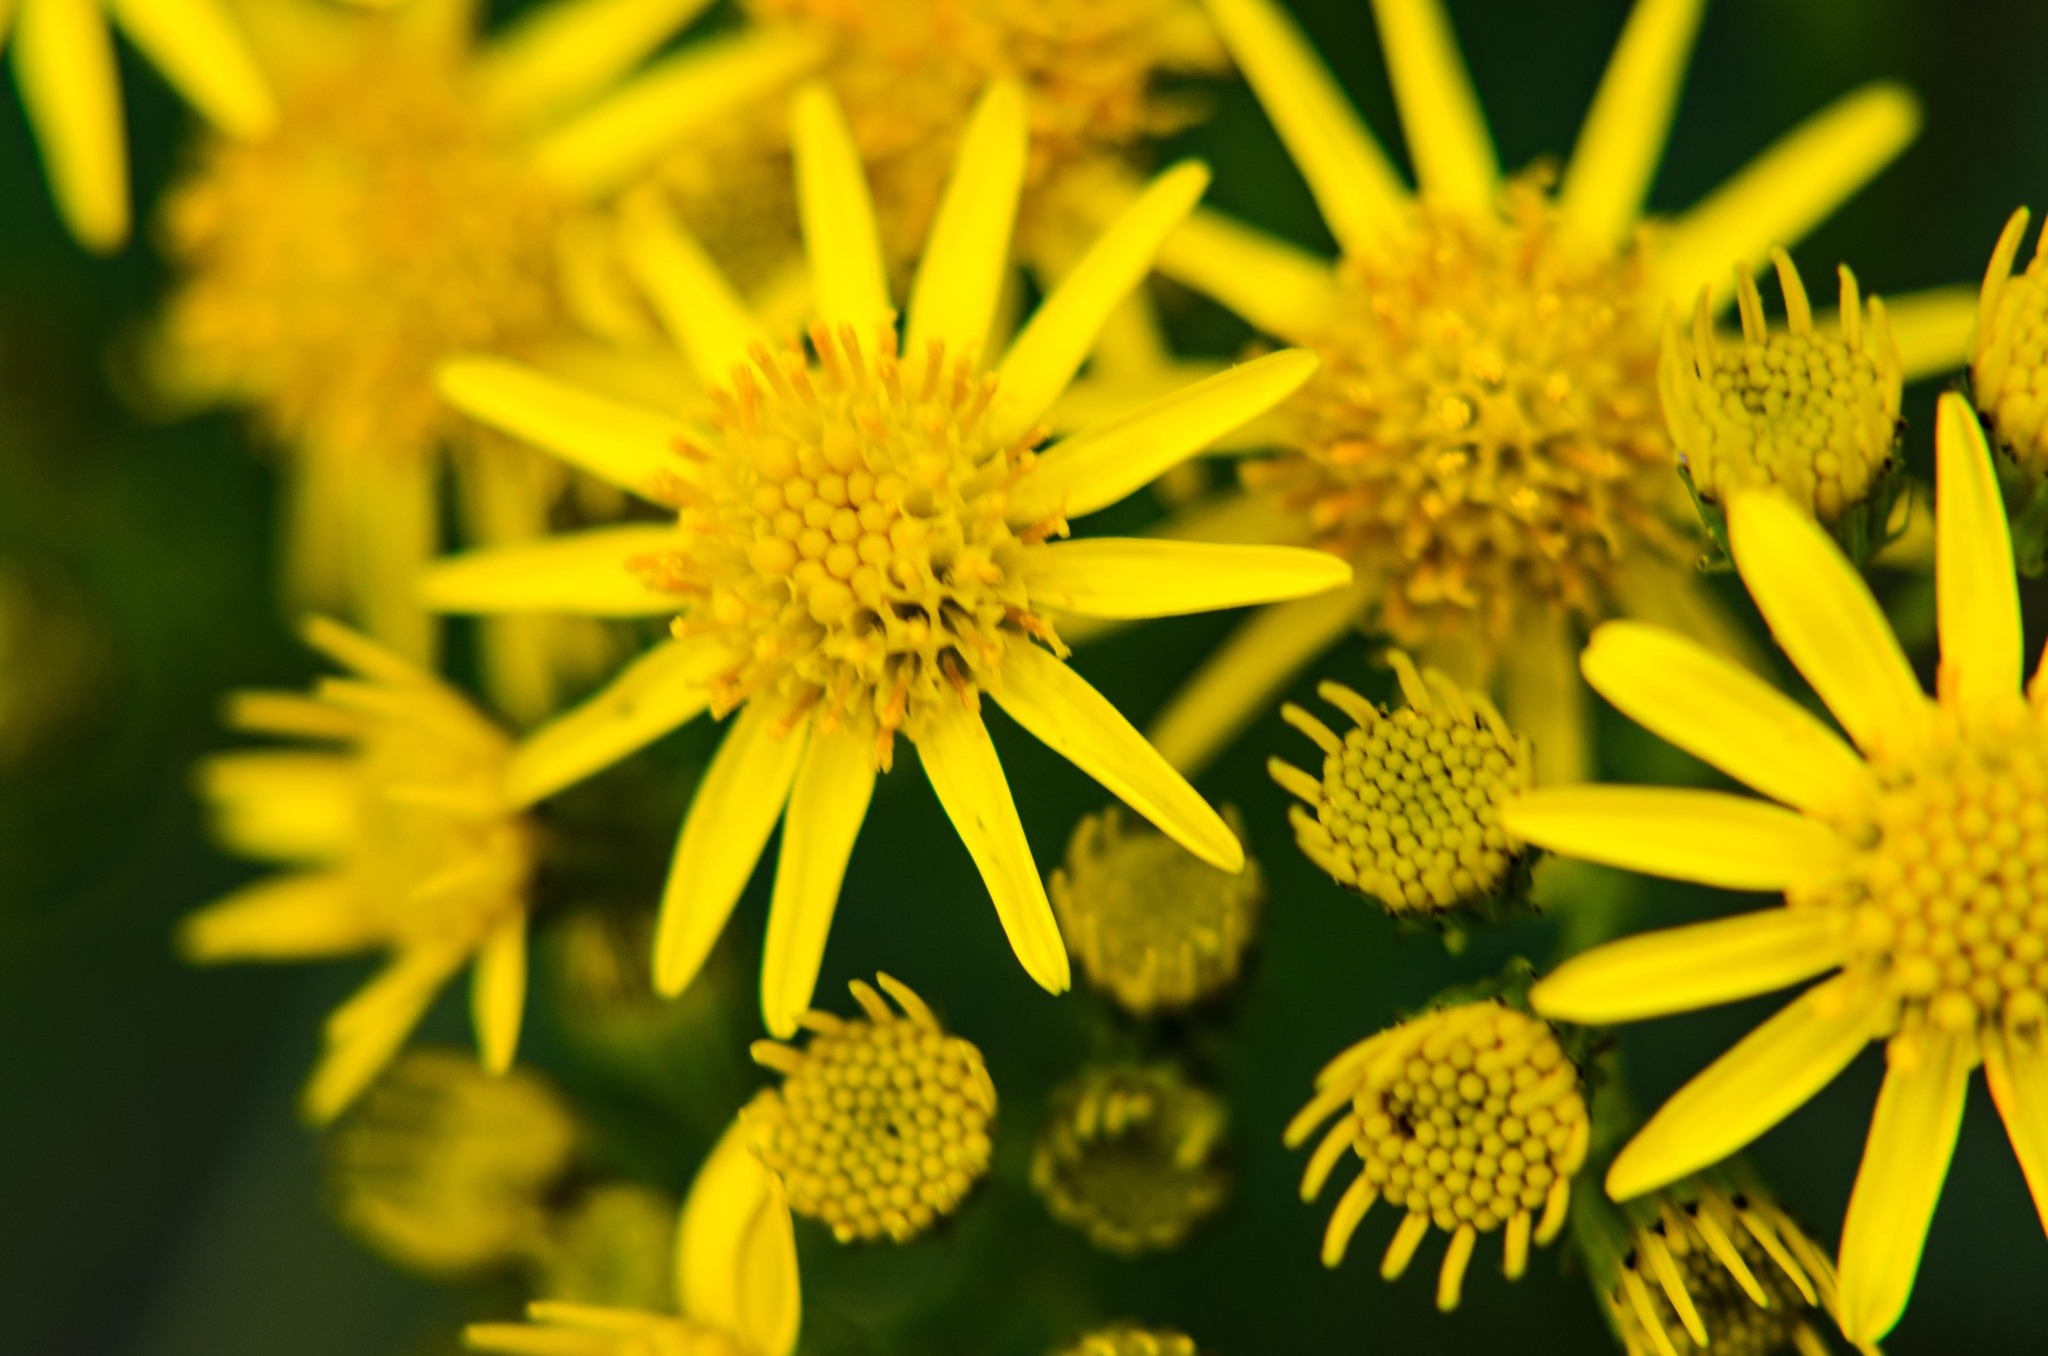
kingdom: Plantae
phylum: Tracheophyta
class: Magnoliopsida
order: Asterales
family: Asteraceae
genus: Jacobaea
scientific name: Jacobaea vulgaris
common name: Stinking willie
